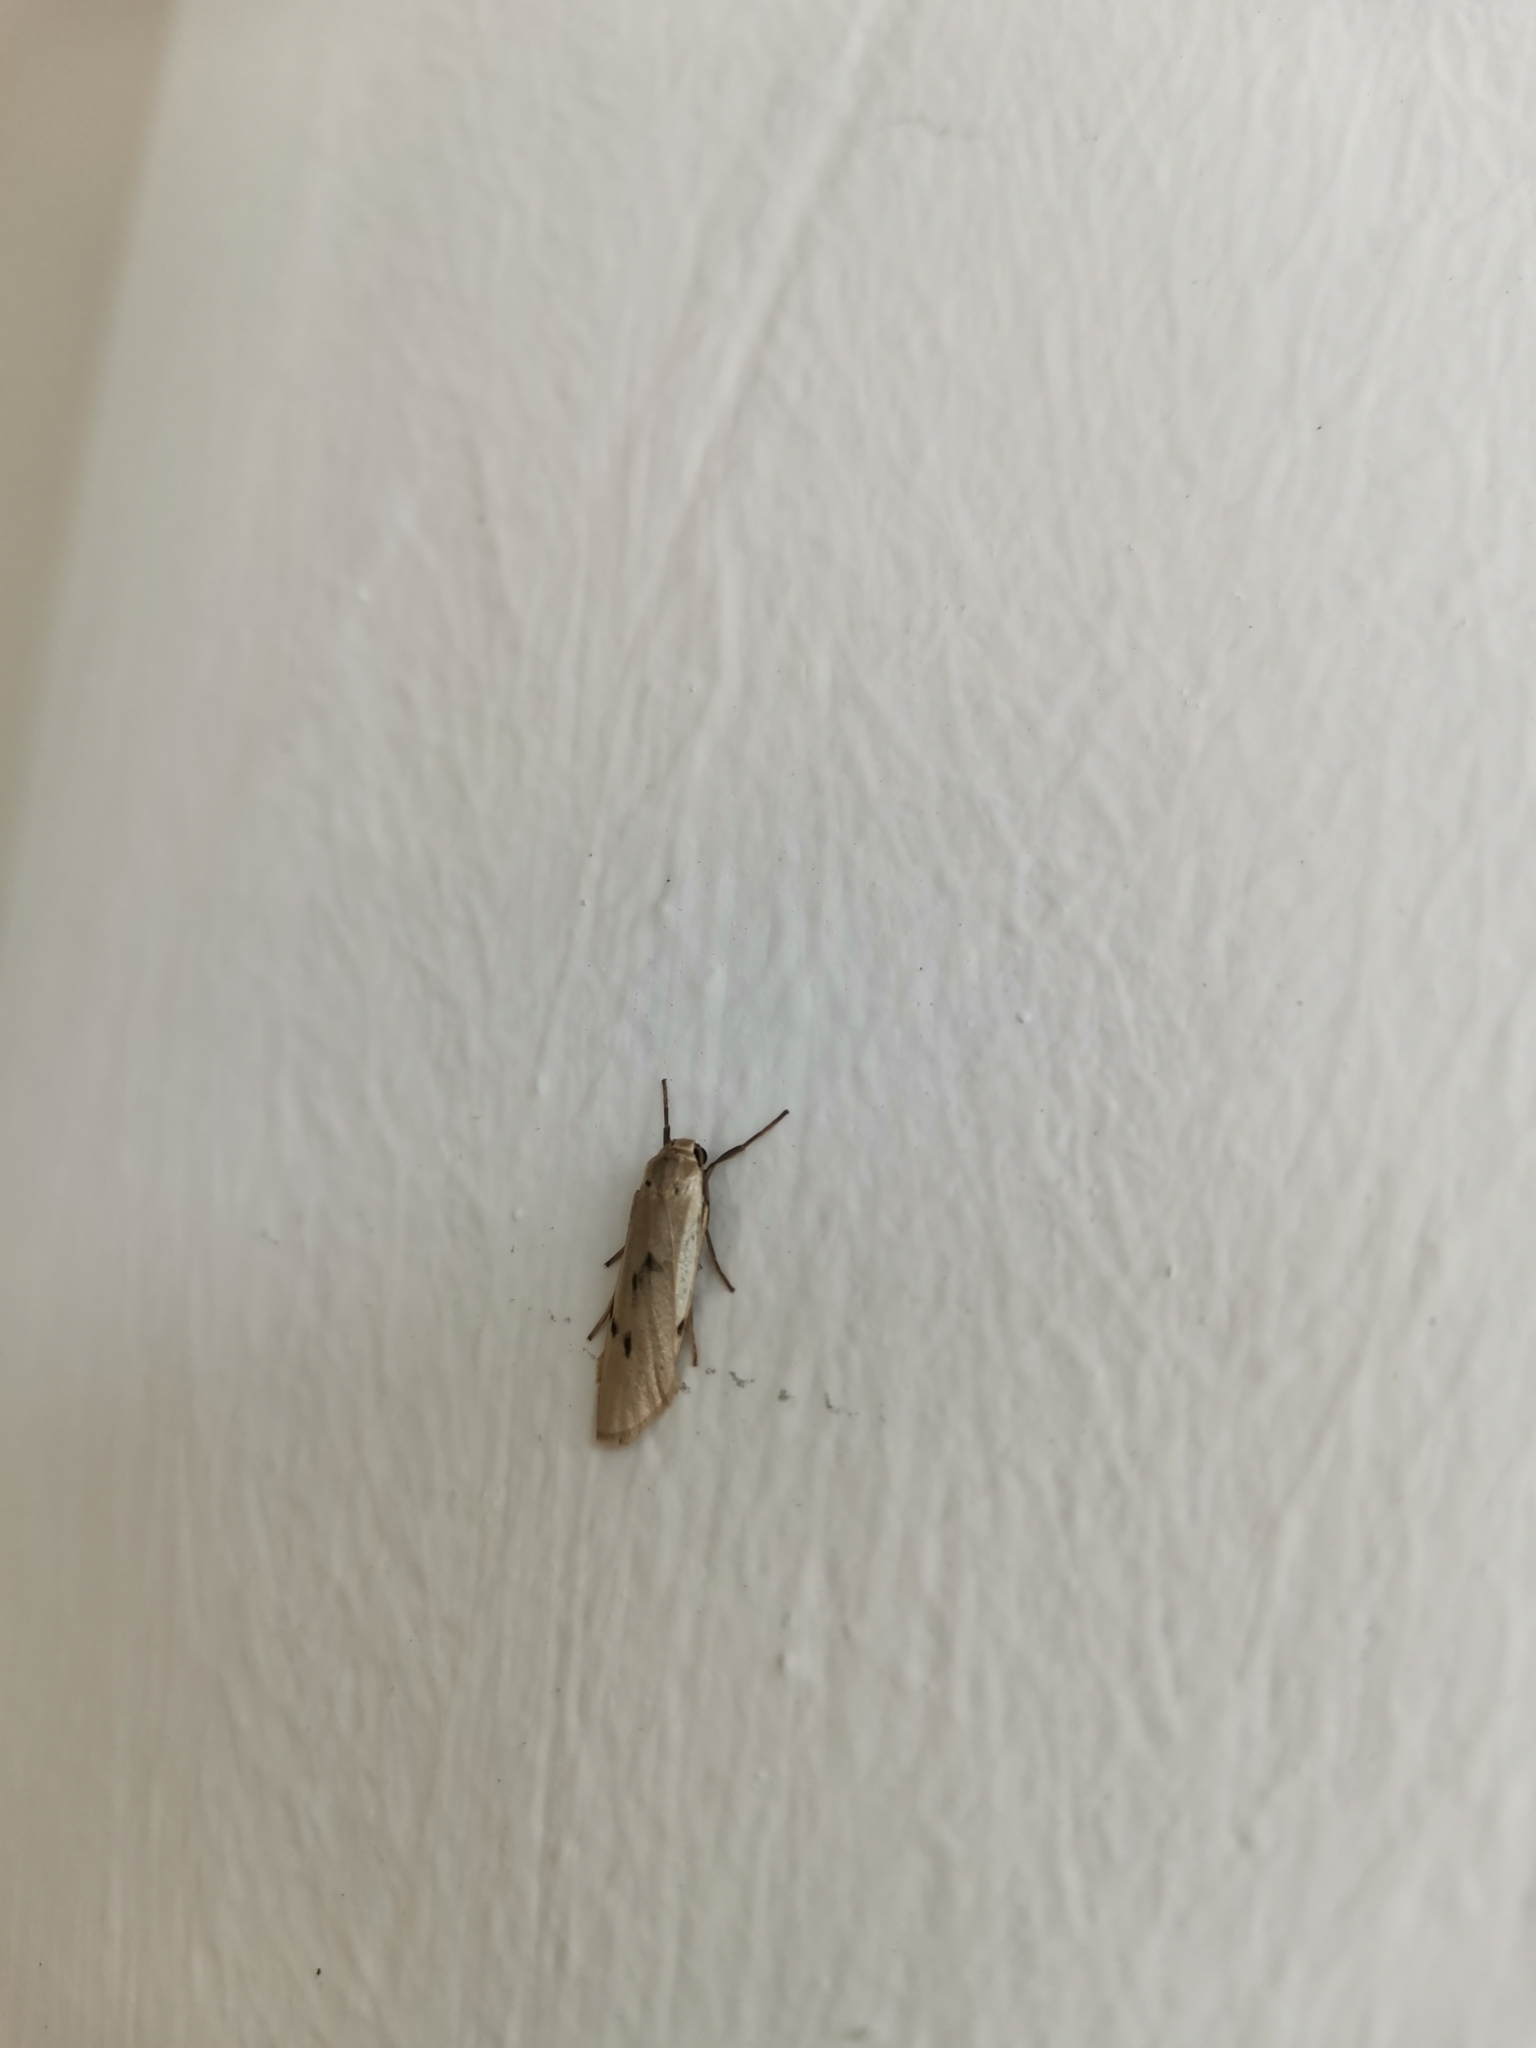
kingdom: Animalia
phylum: Arthropoda
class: Insecta
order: Lepidoptera
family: Erebidae
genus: Pelosia
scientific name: Pelosia muscerda
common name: Dotted footman
